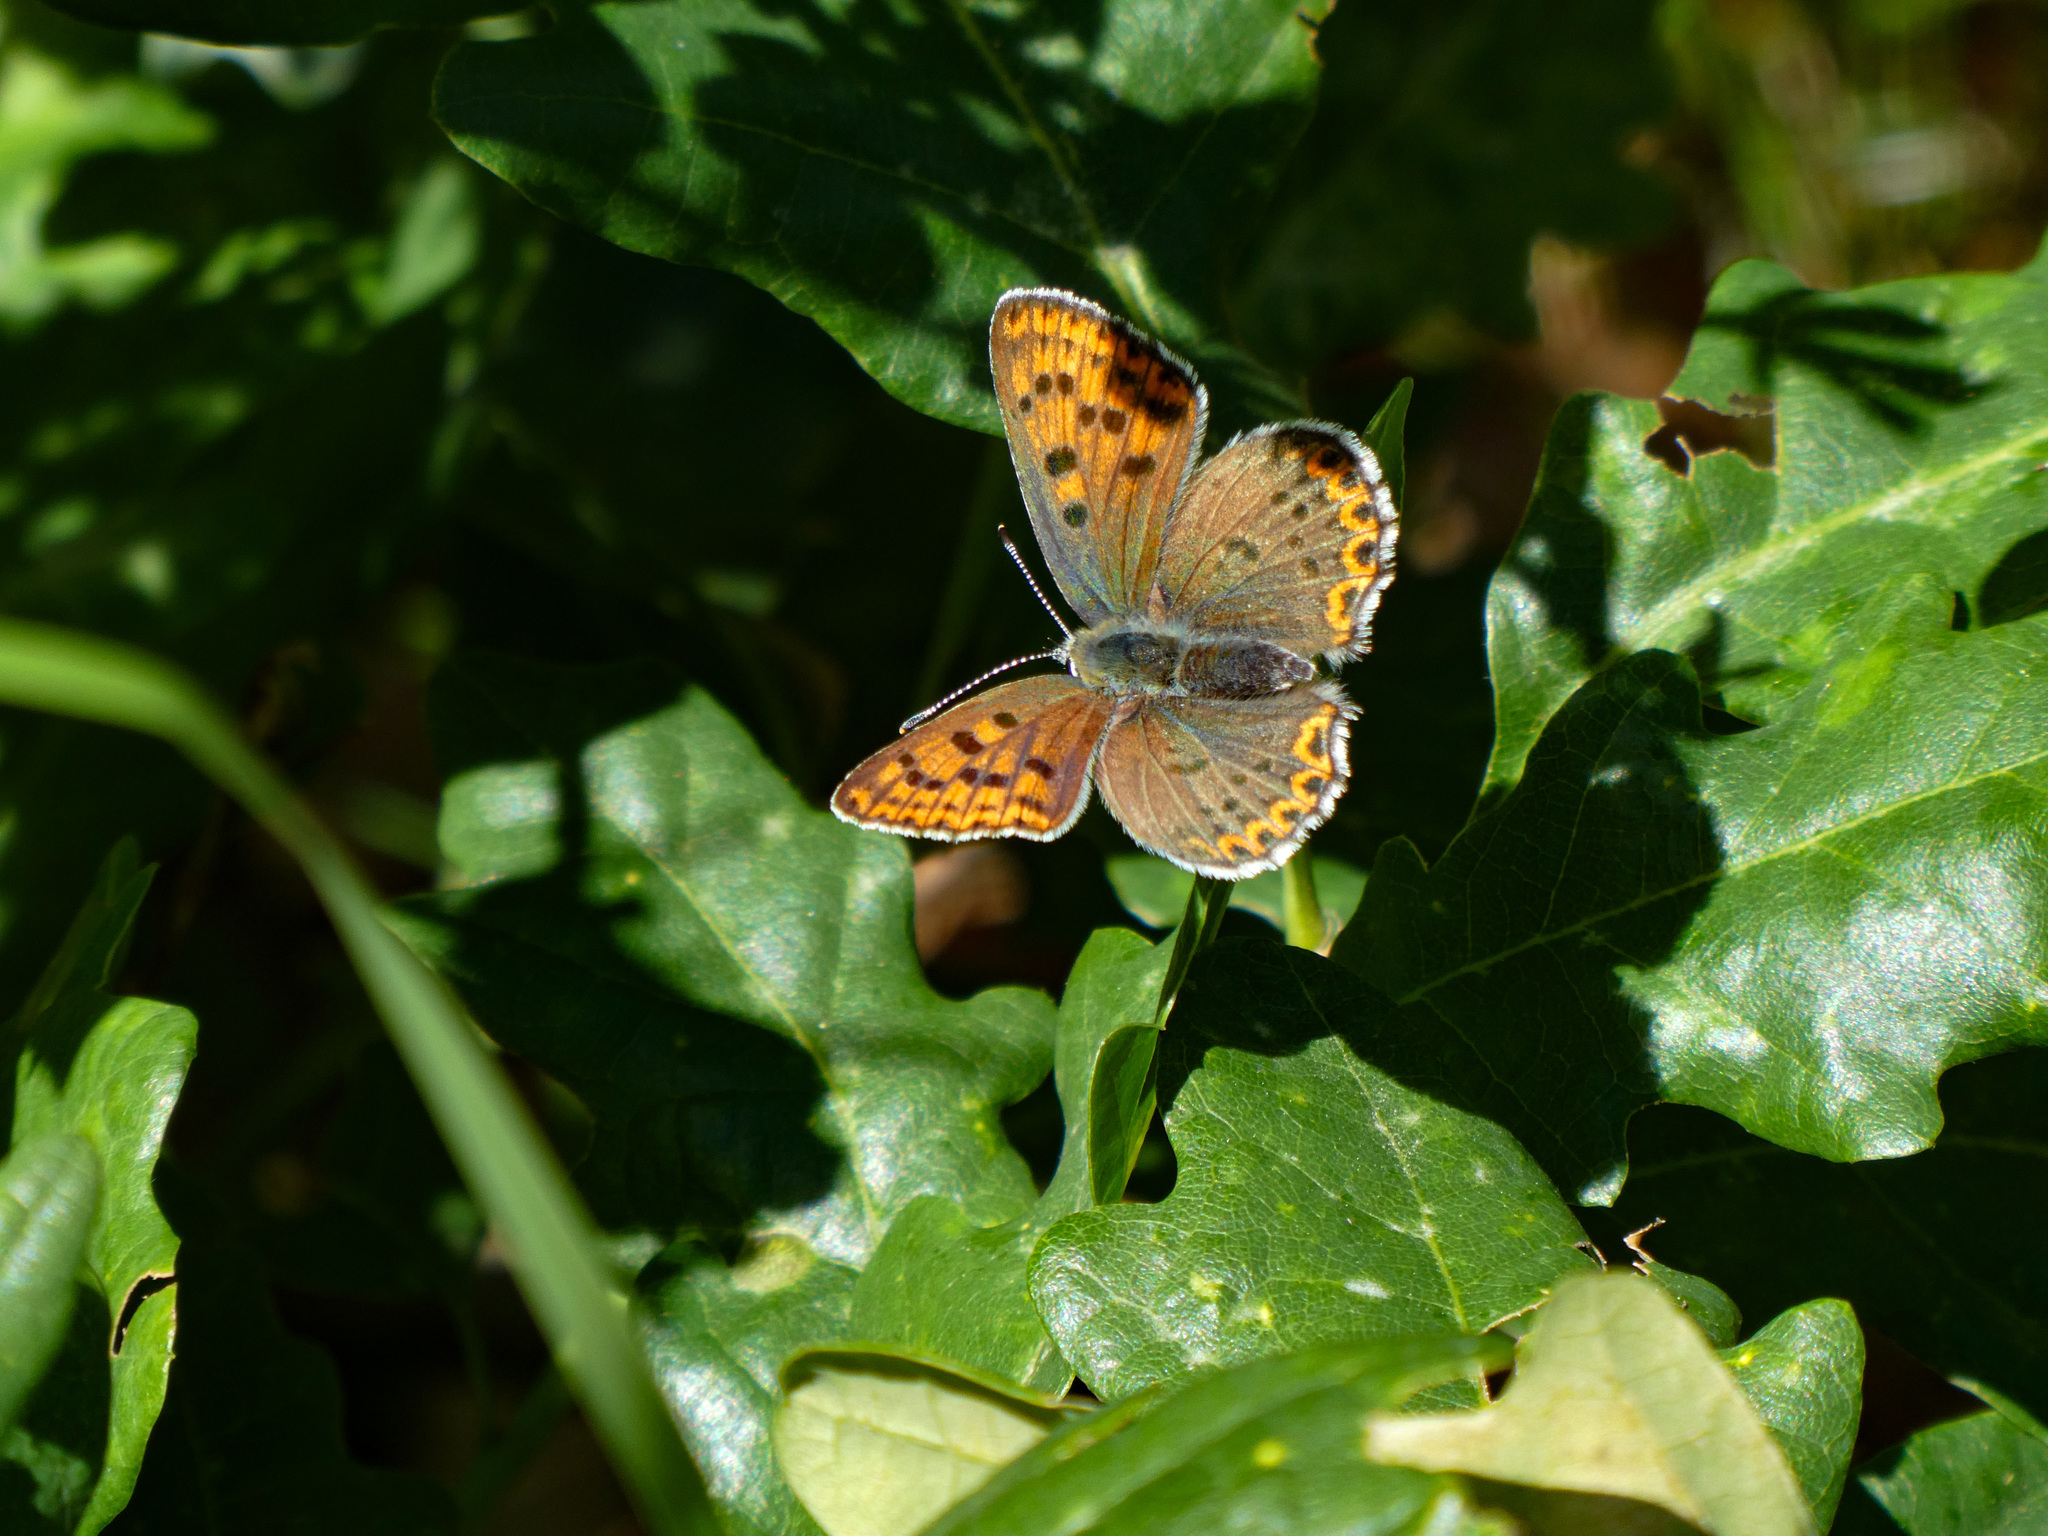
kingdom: Animalia
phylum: Arthropoda
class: Insecta
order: Lepidoptera
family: Lycaenidae
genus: Loweia
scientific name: Loweia tityrus
